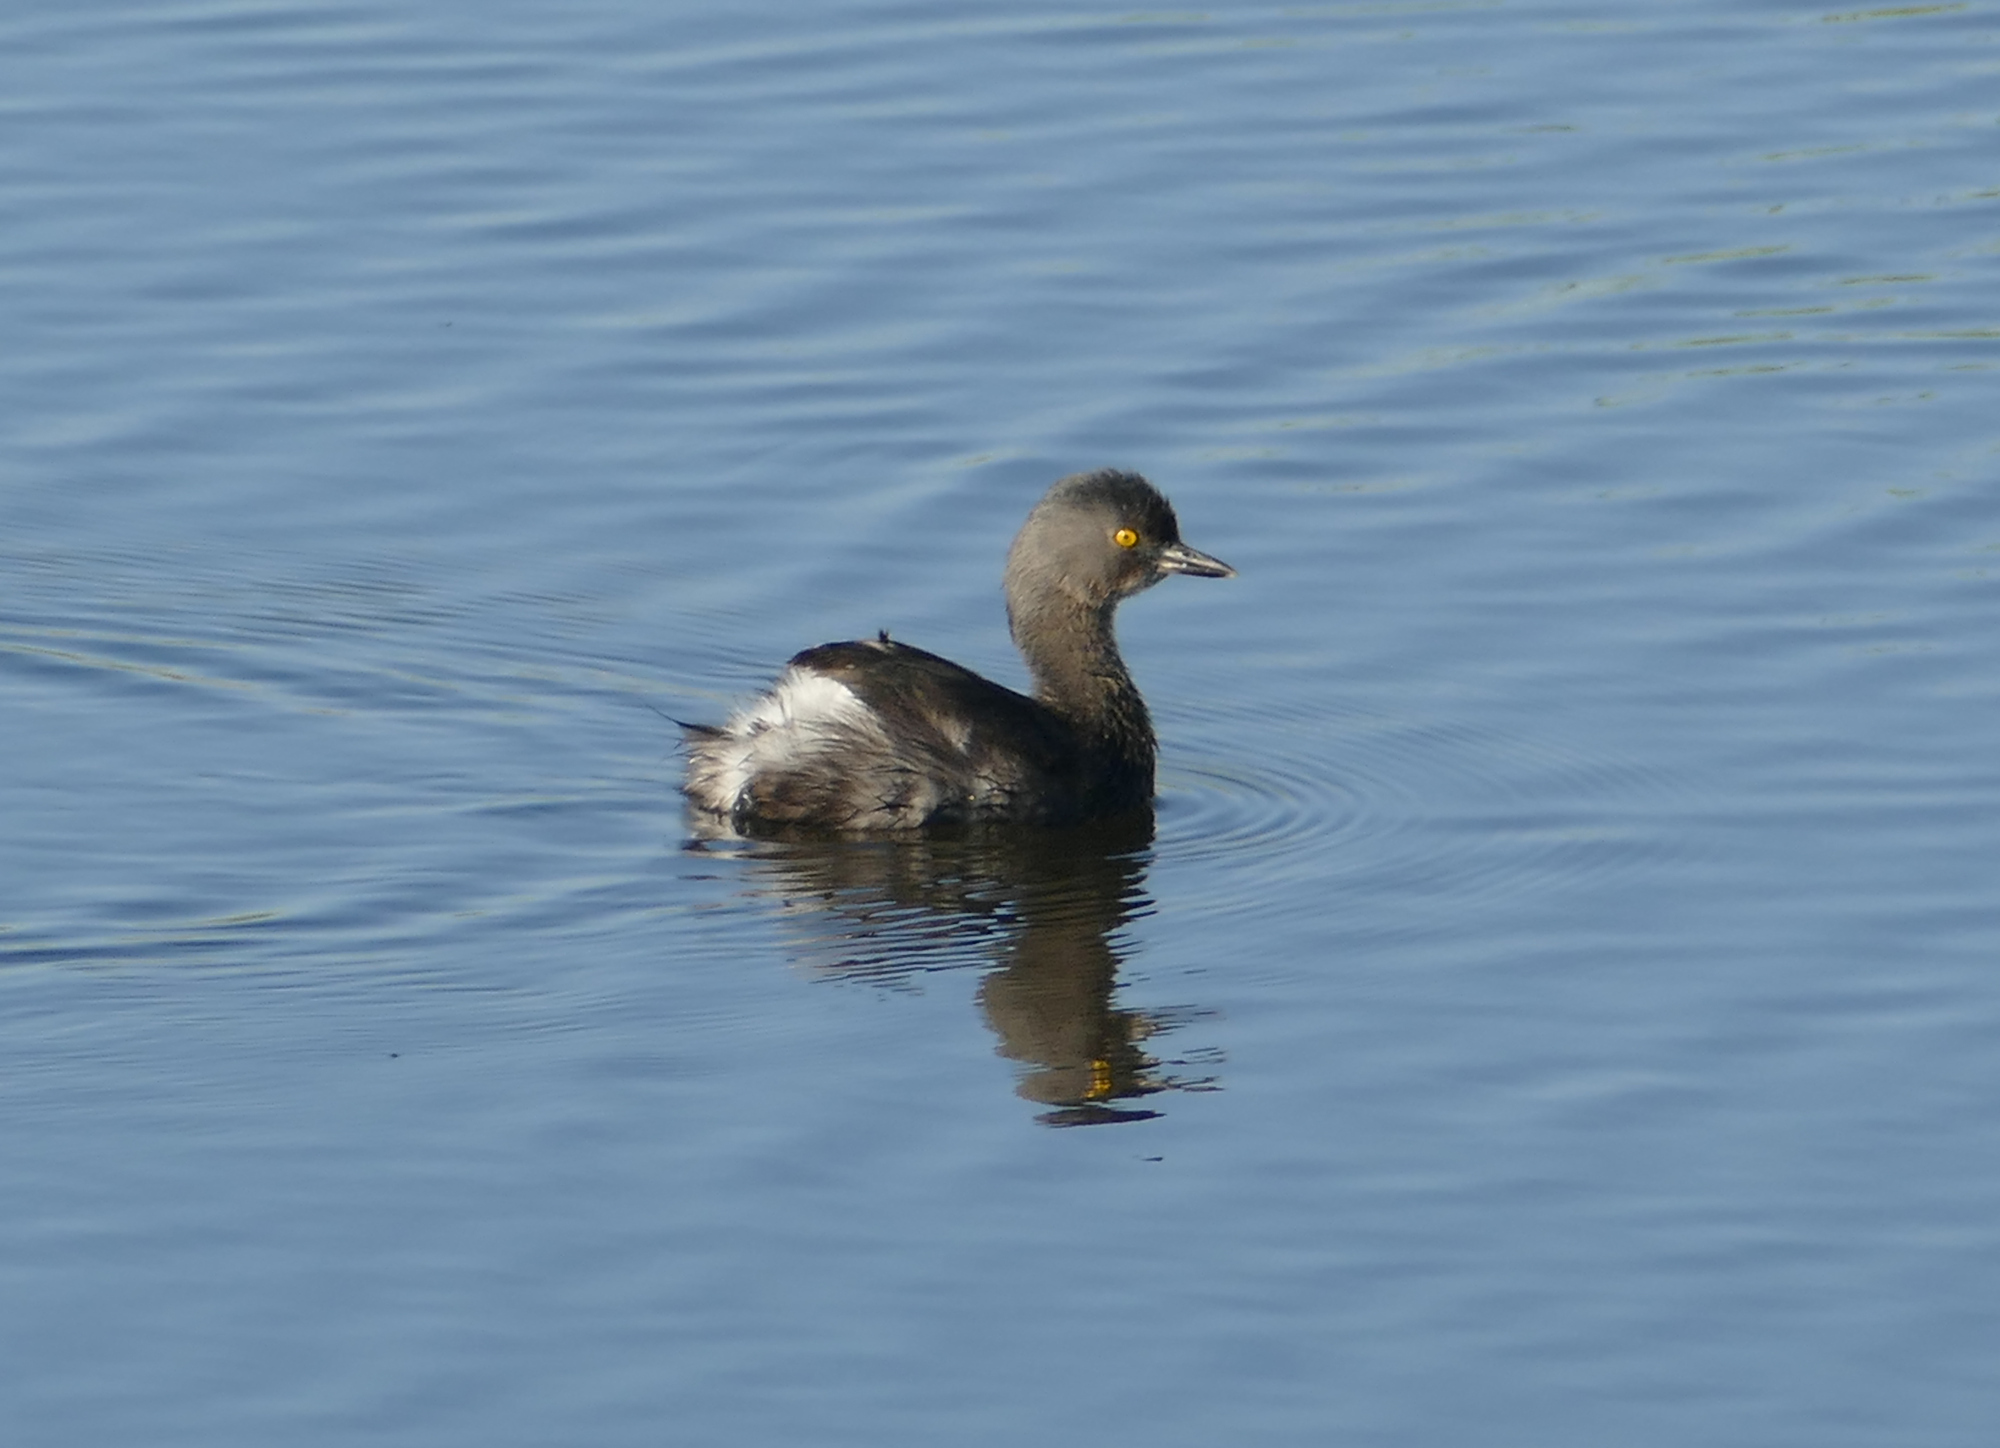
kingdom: Animalia
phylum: Chordata
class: Aves
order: Podicipediformes
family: Podicipedidae
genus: Tachybaptus
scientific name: Tachybaptus dominicus
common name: Least grebe
